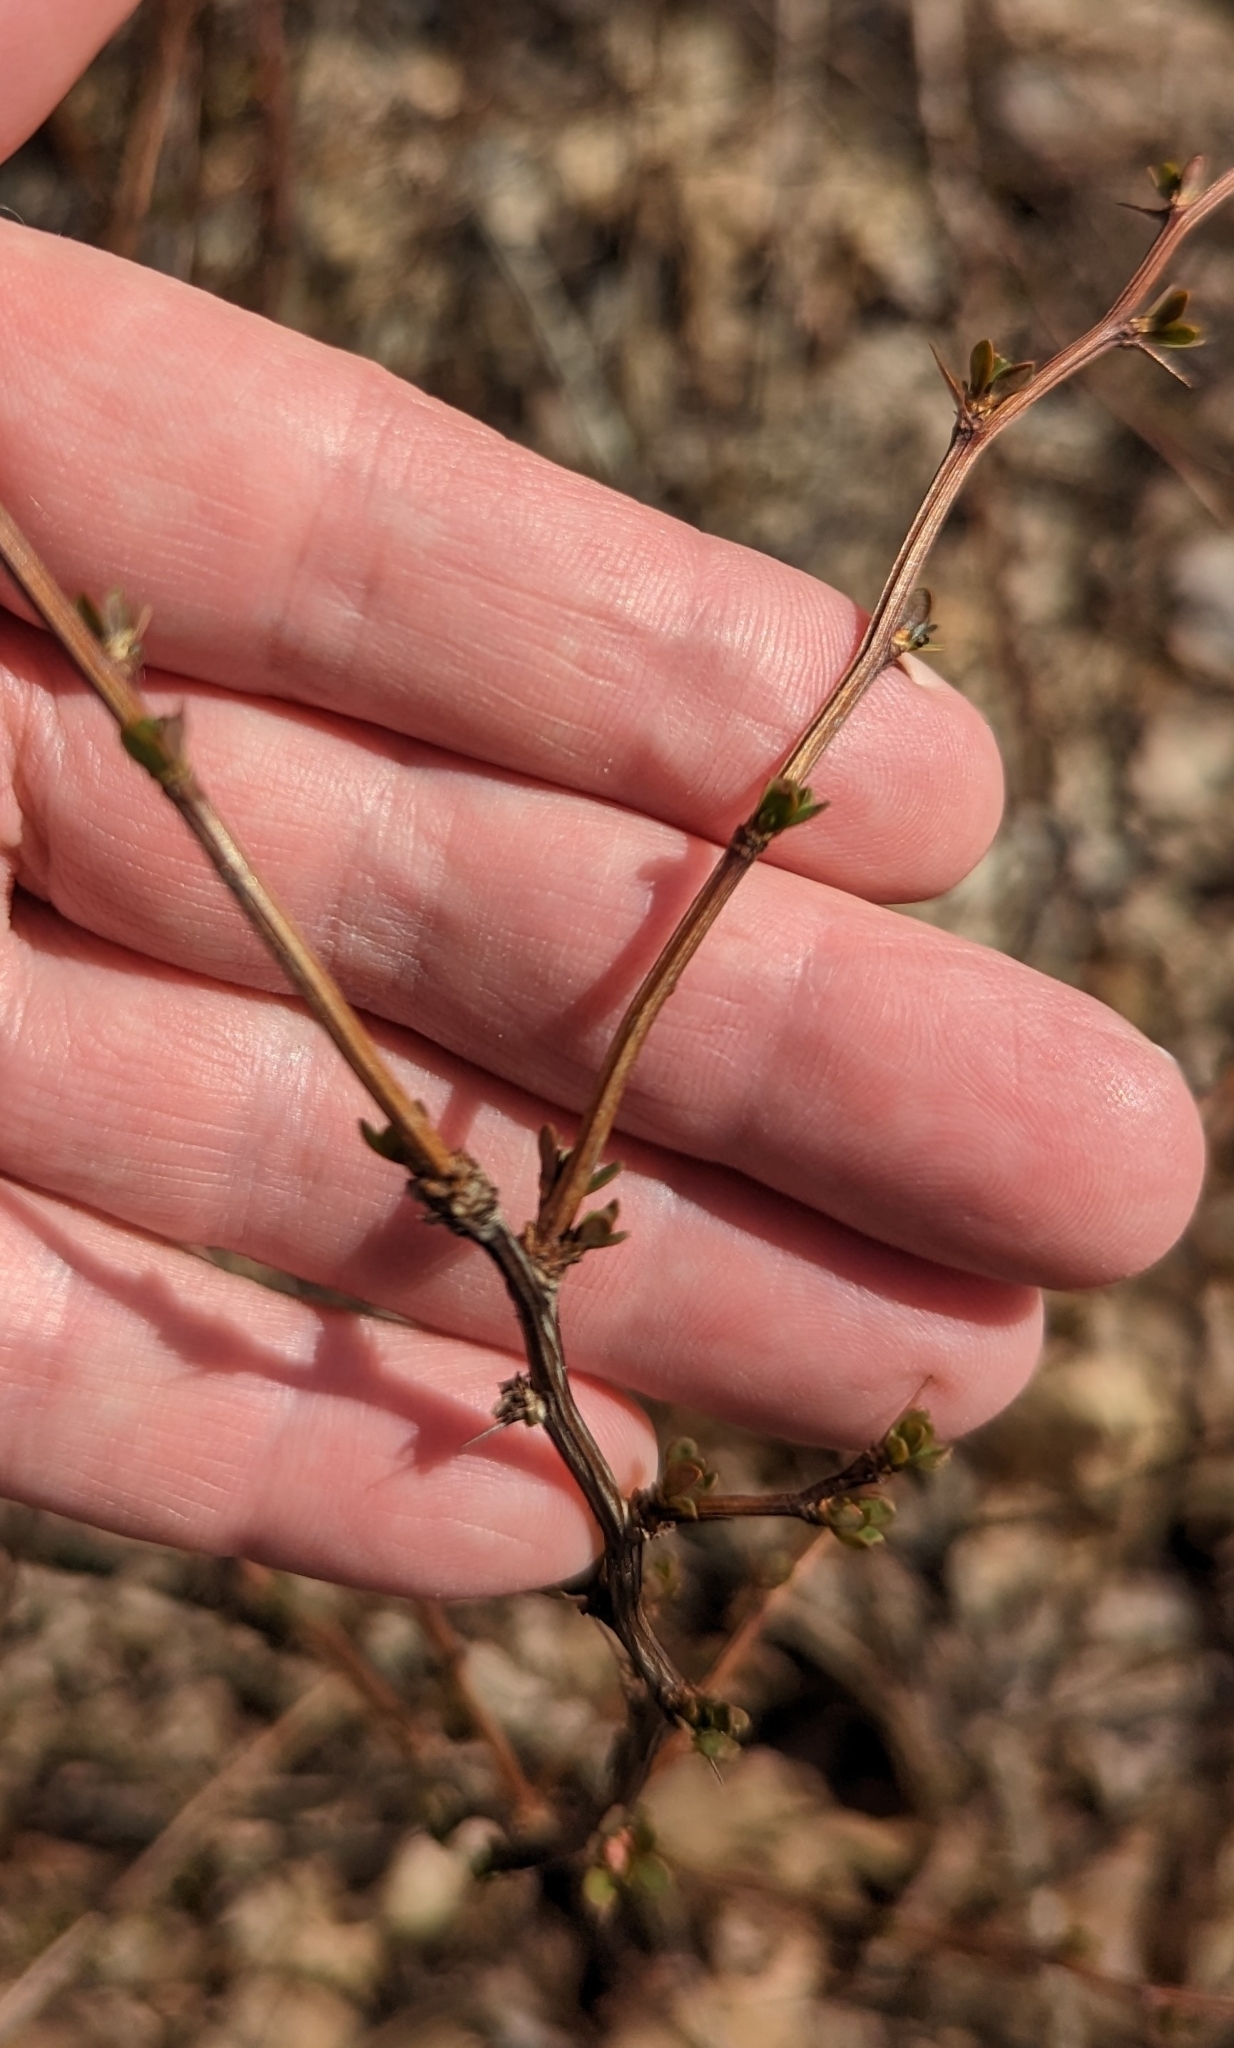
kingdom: Plantae
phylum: Tracheophyta
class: Magnoliopsida
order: Ranunculales
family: Berberidaceae
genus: Berberis
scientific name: Berberis thunbergii
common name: Japanese barberry
